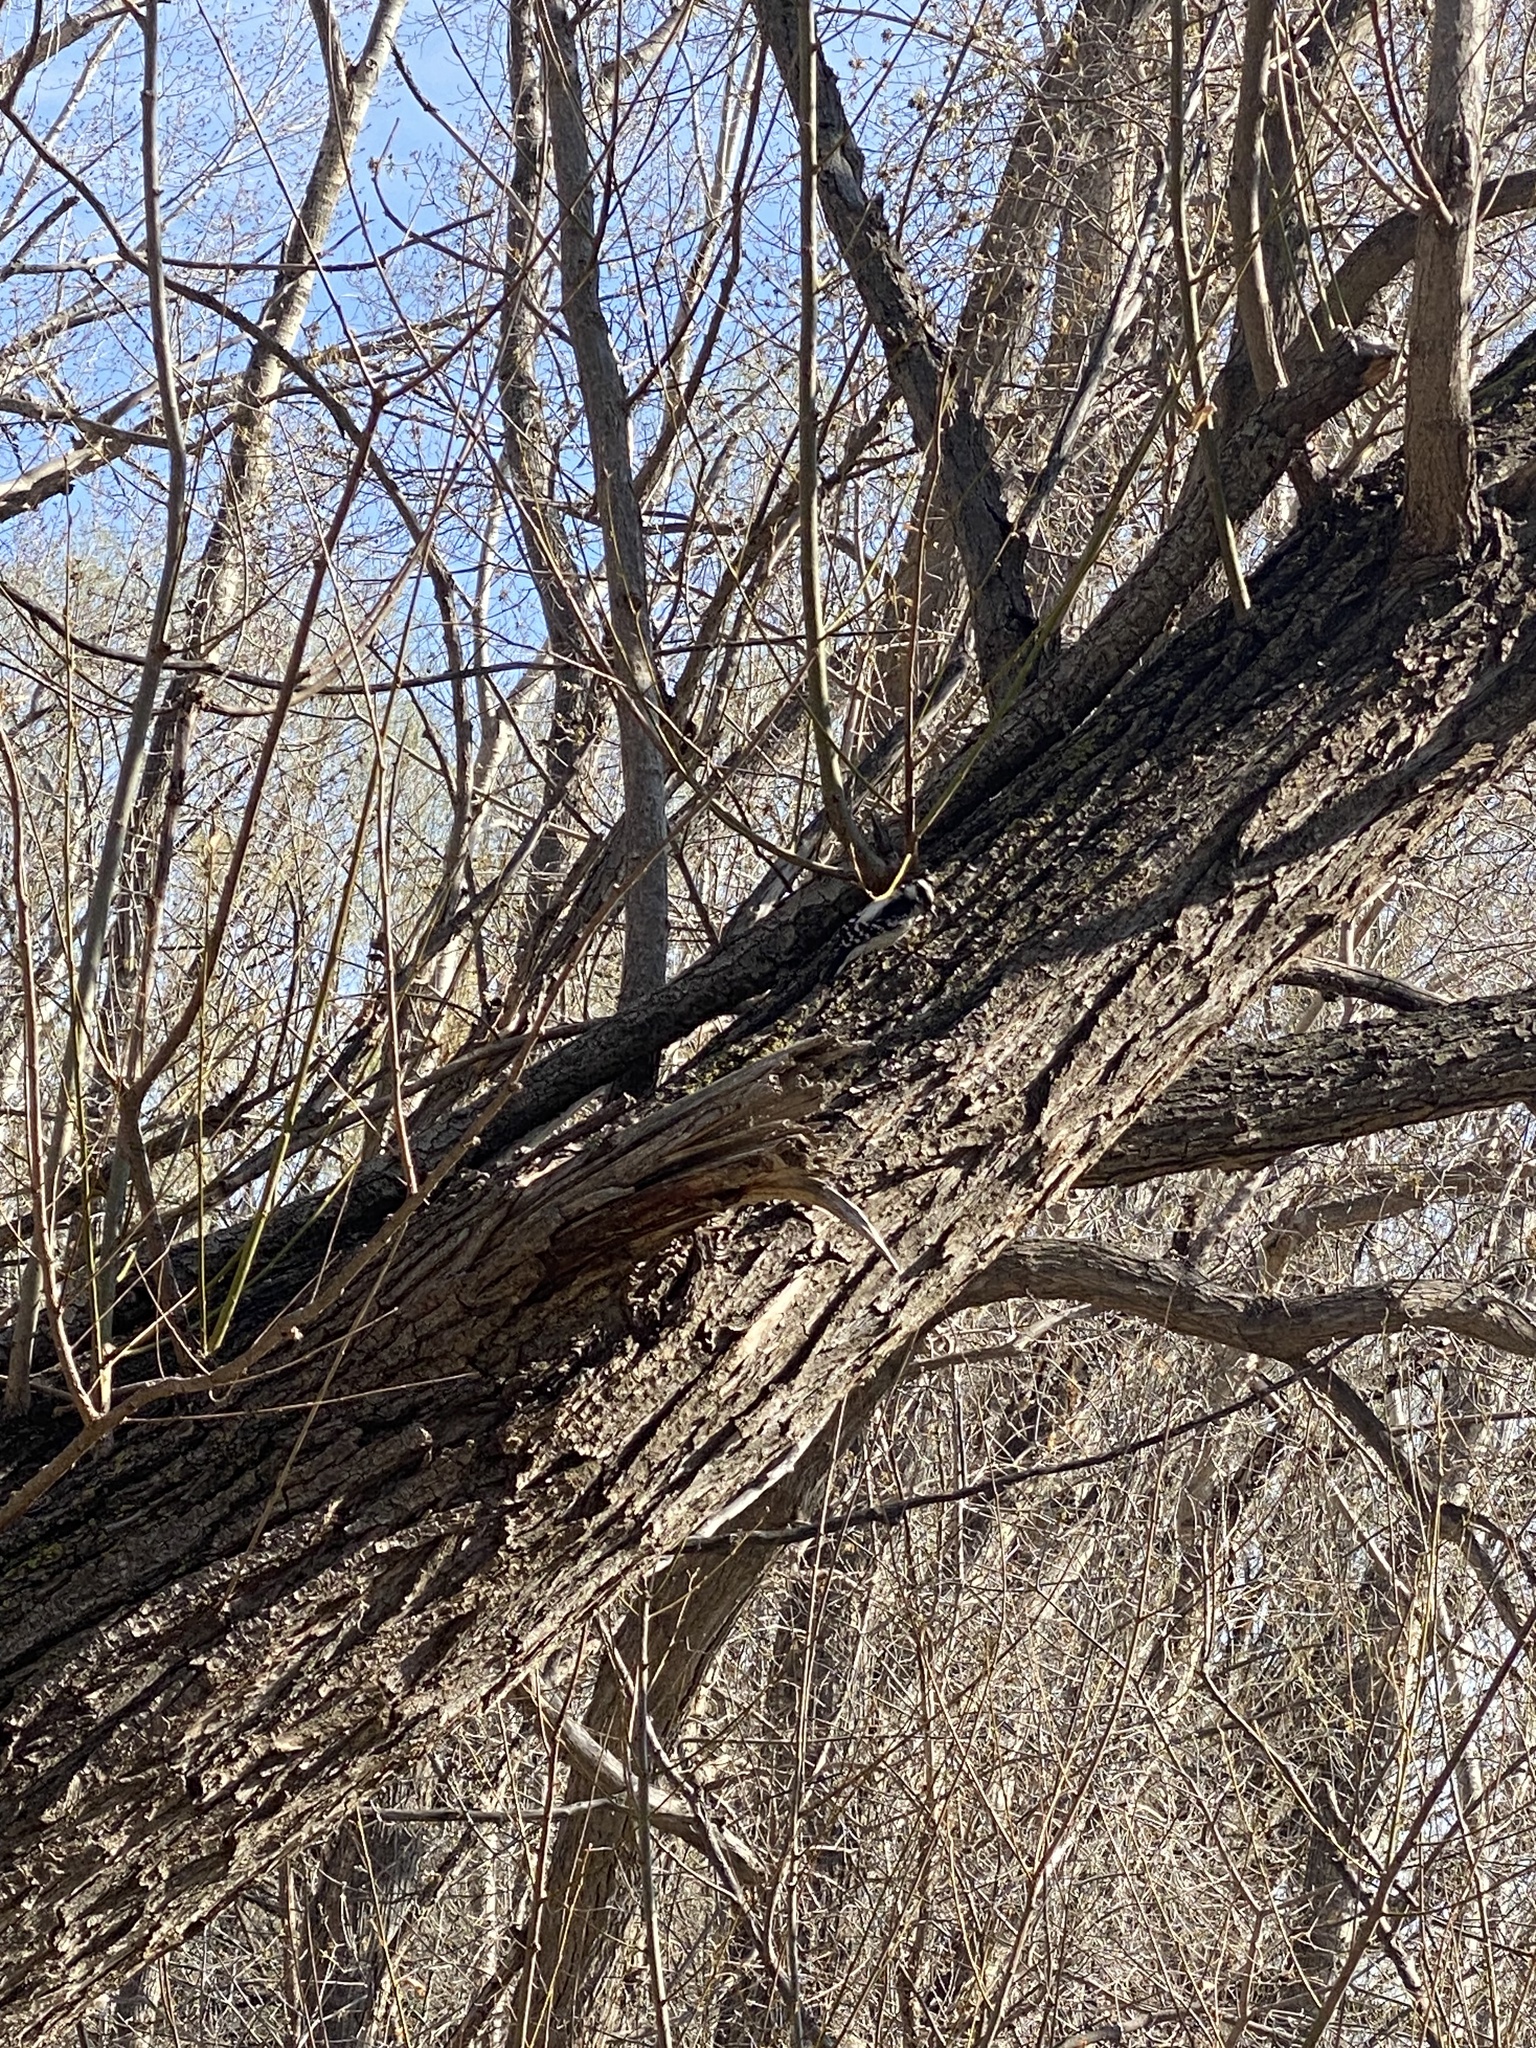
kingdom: Animalia
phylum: Chordata
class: Aves
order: Piciformes
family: Picidae
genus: Dryobates
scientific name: Dryobates pubescens
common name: Downy woodpecker
